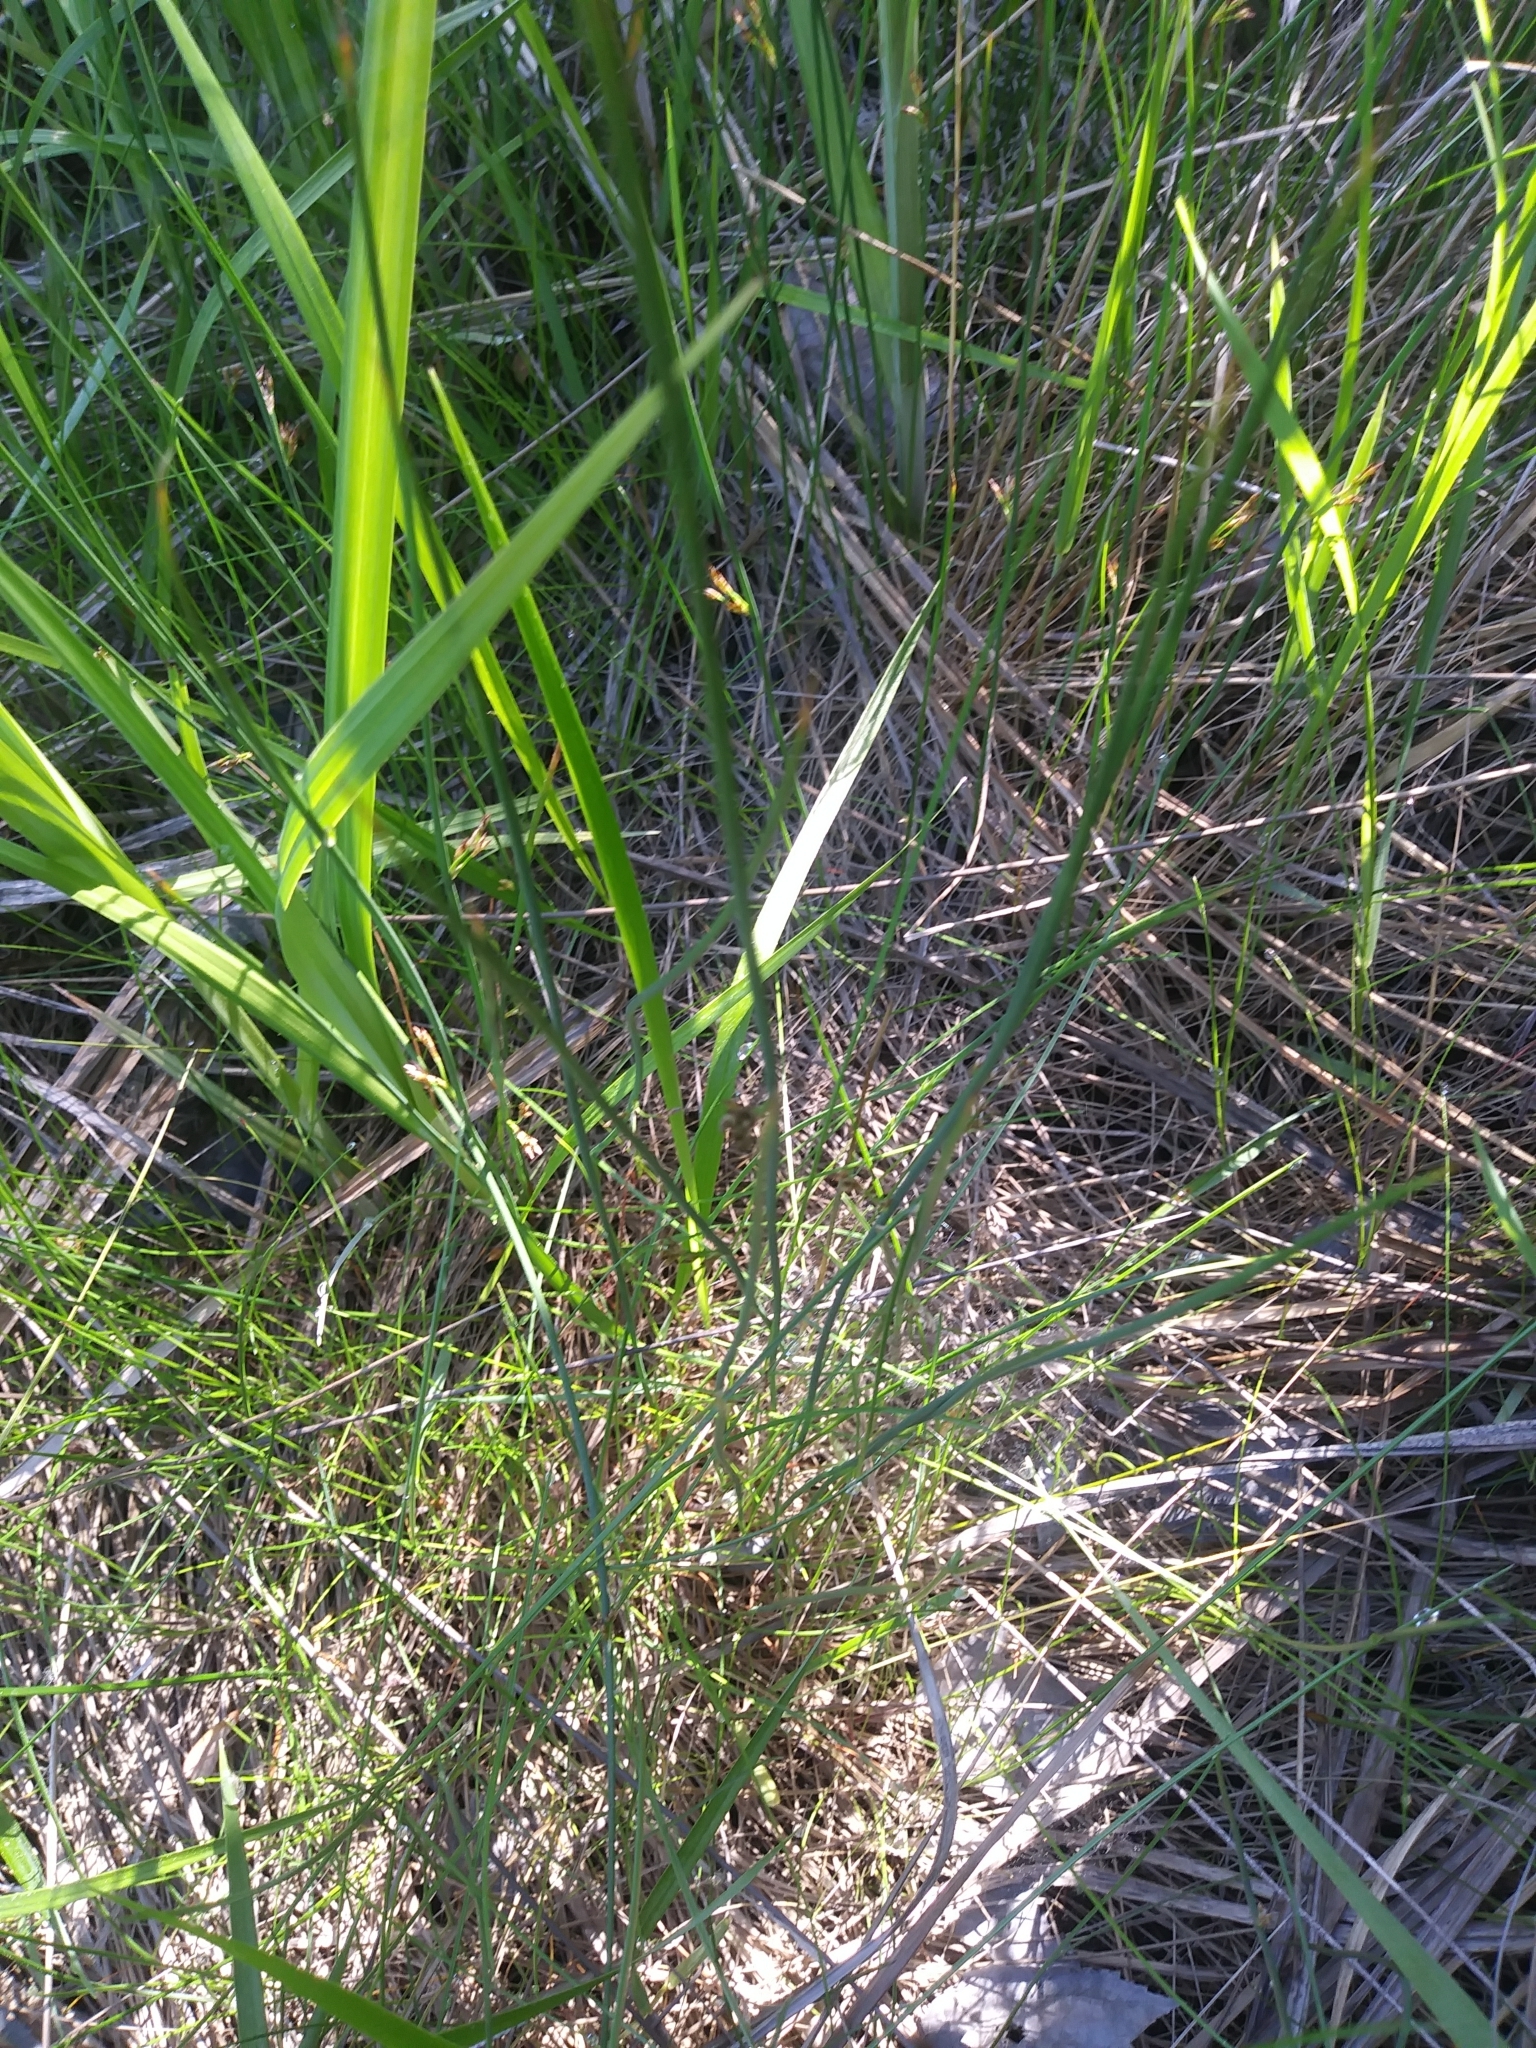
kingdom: Plantae
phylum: Tracheophyta
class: Liliopsida
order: Poales
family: Juncaceae
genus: Juncus
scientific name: Juncus gerardi
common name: Saltmarsh rush
